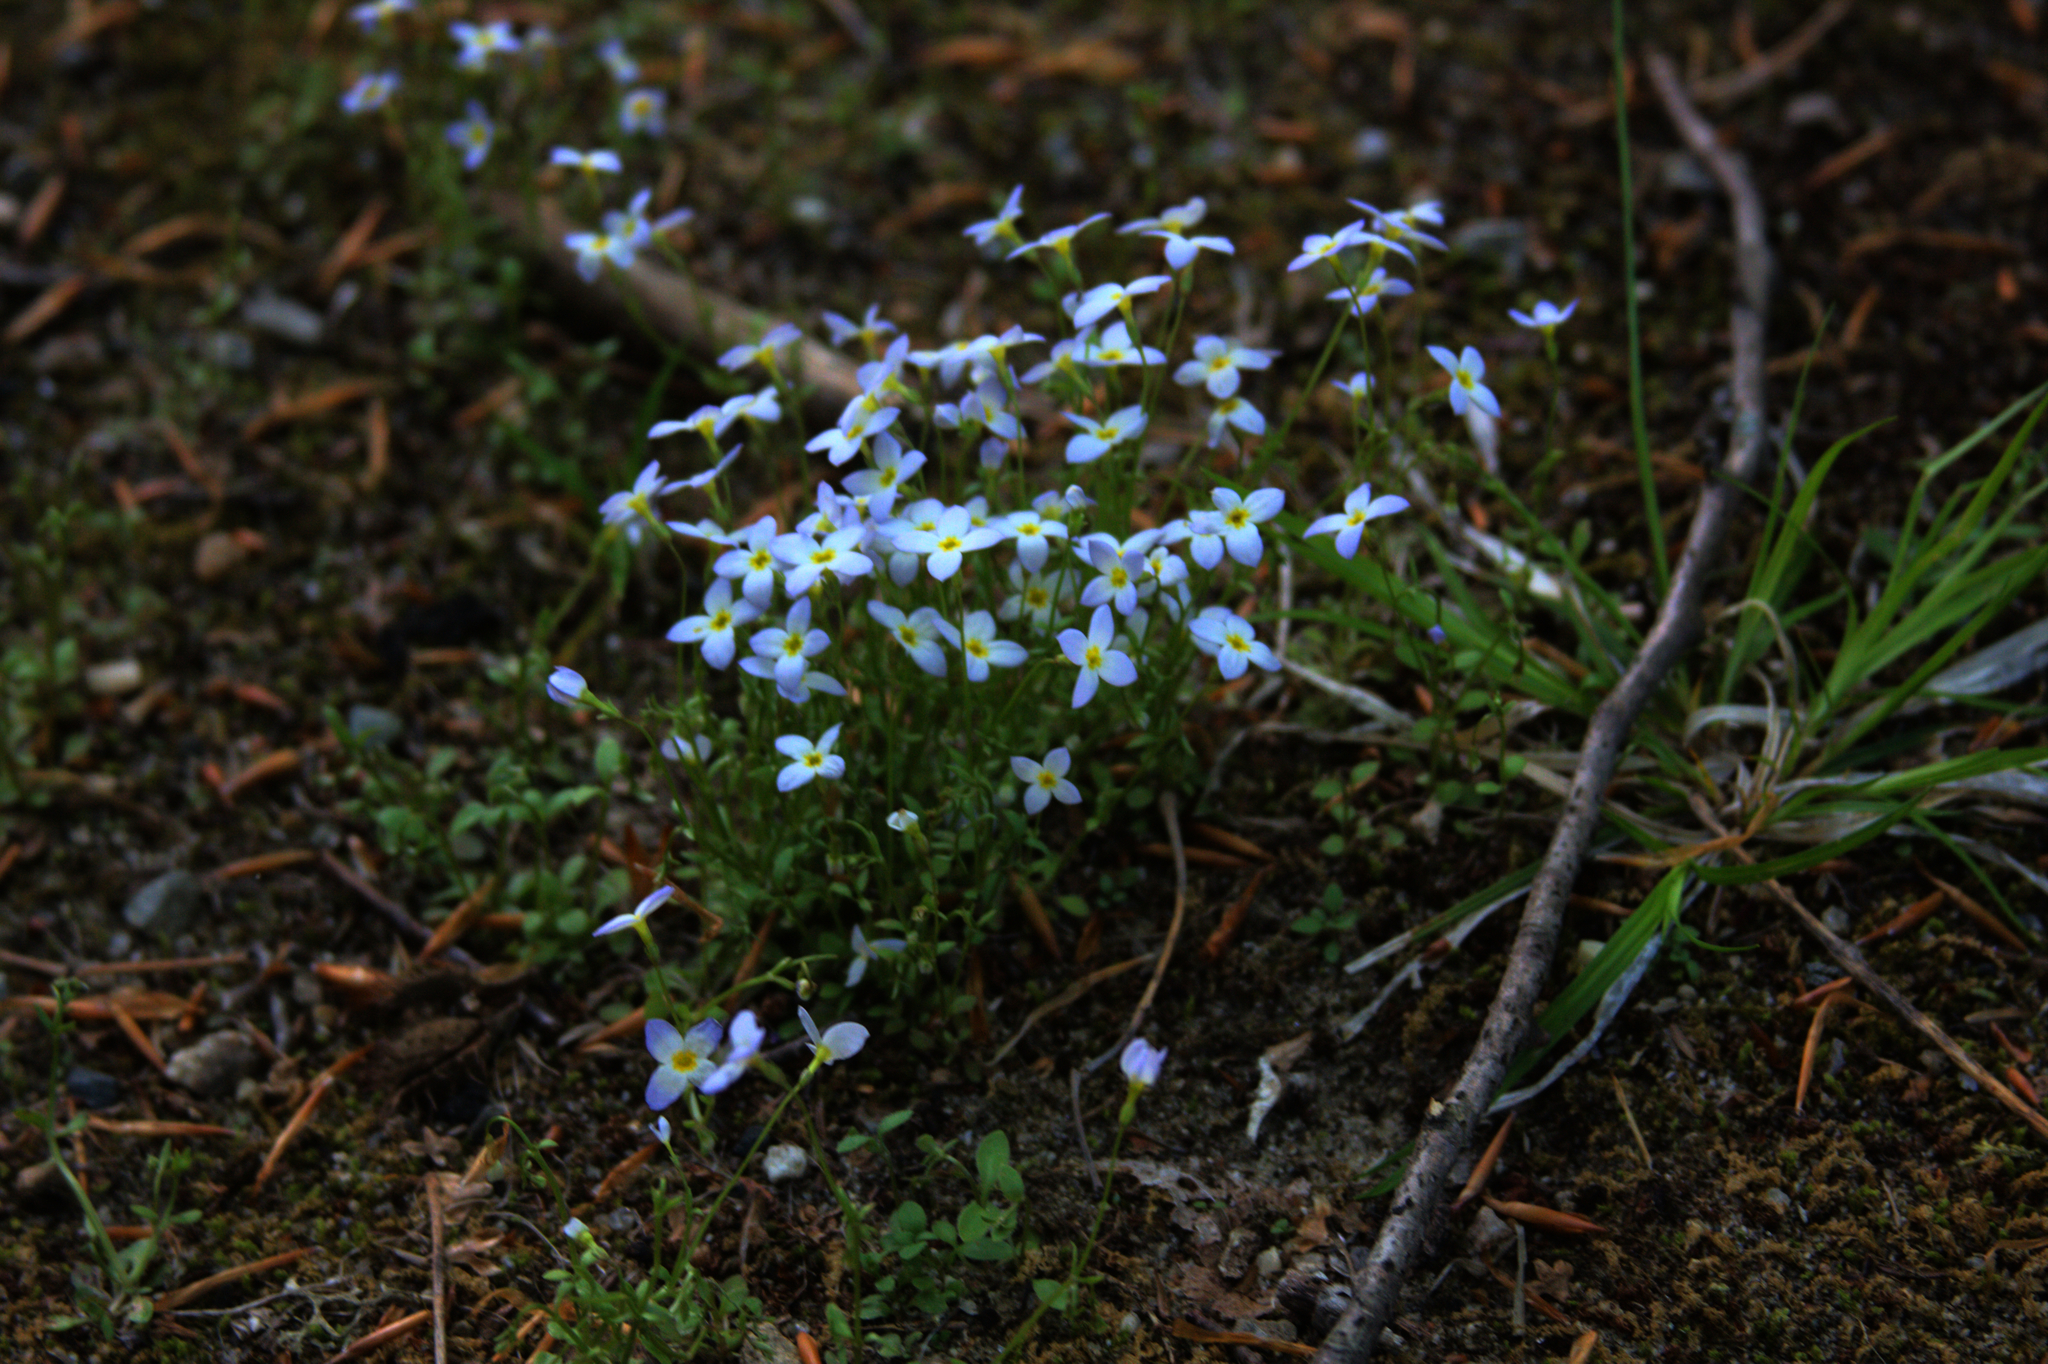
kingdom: Plantae
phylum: Tracheophyta
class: Magnoliopsida
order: Gentianales
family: Rubiaceae
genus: Houstonia
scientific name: Houstonia caerulea
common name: Bluets
